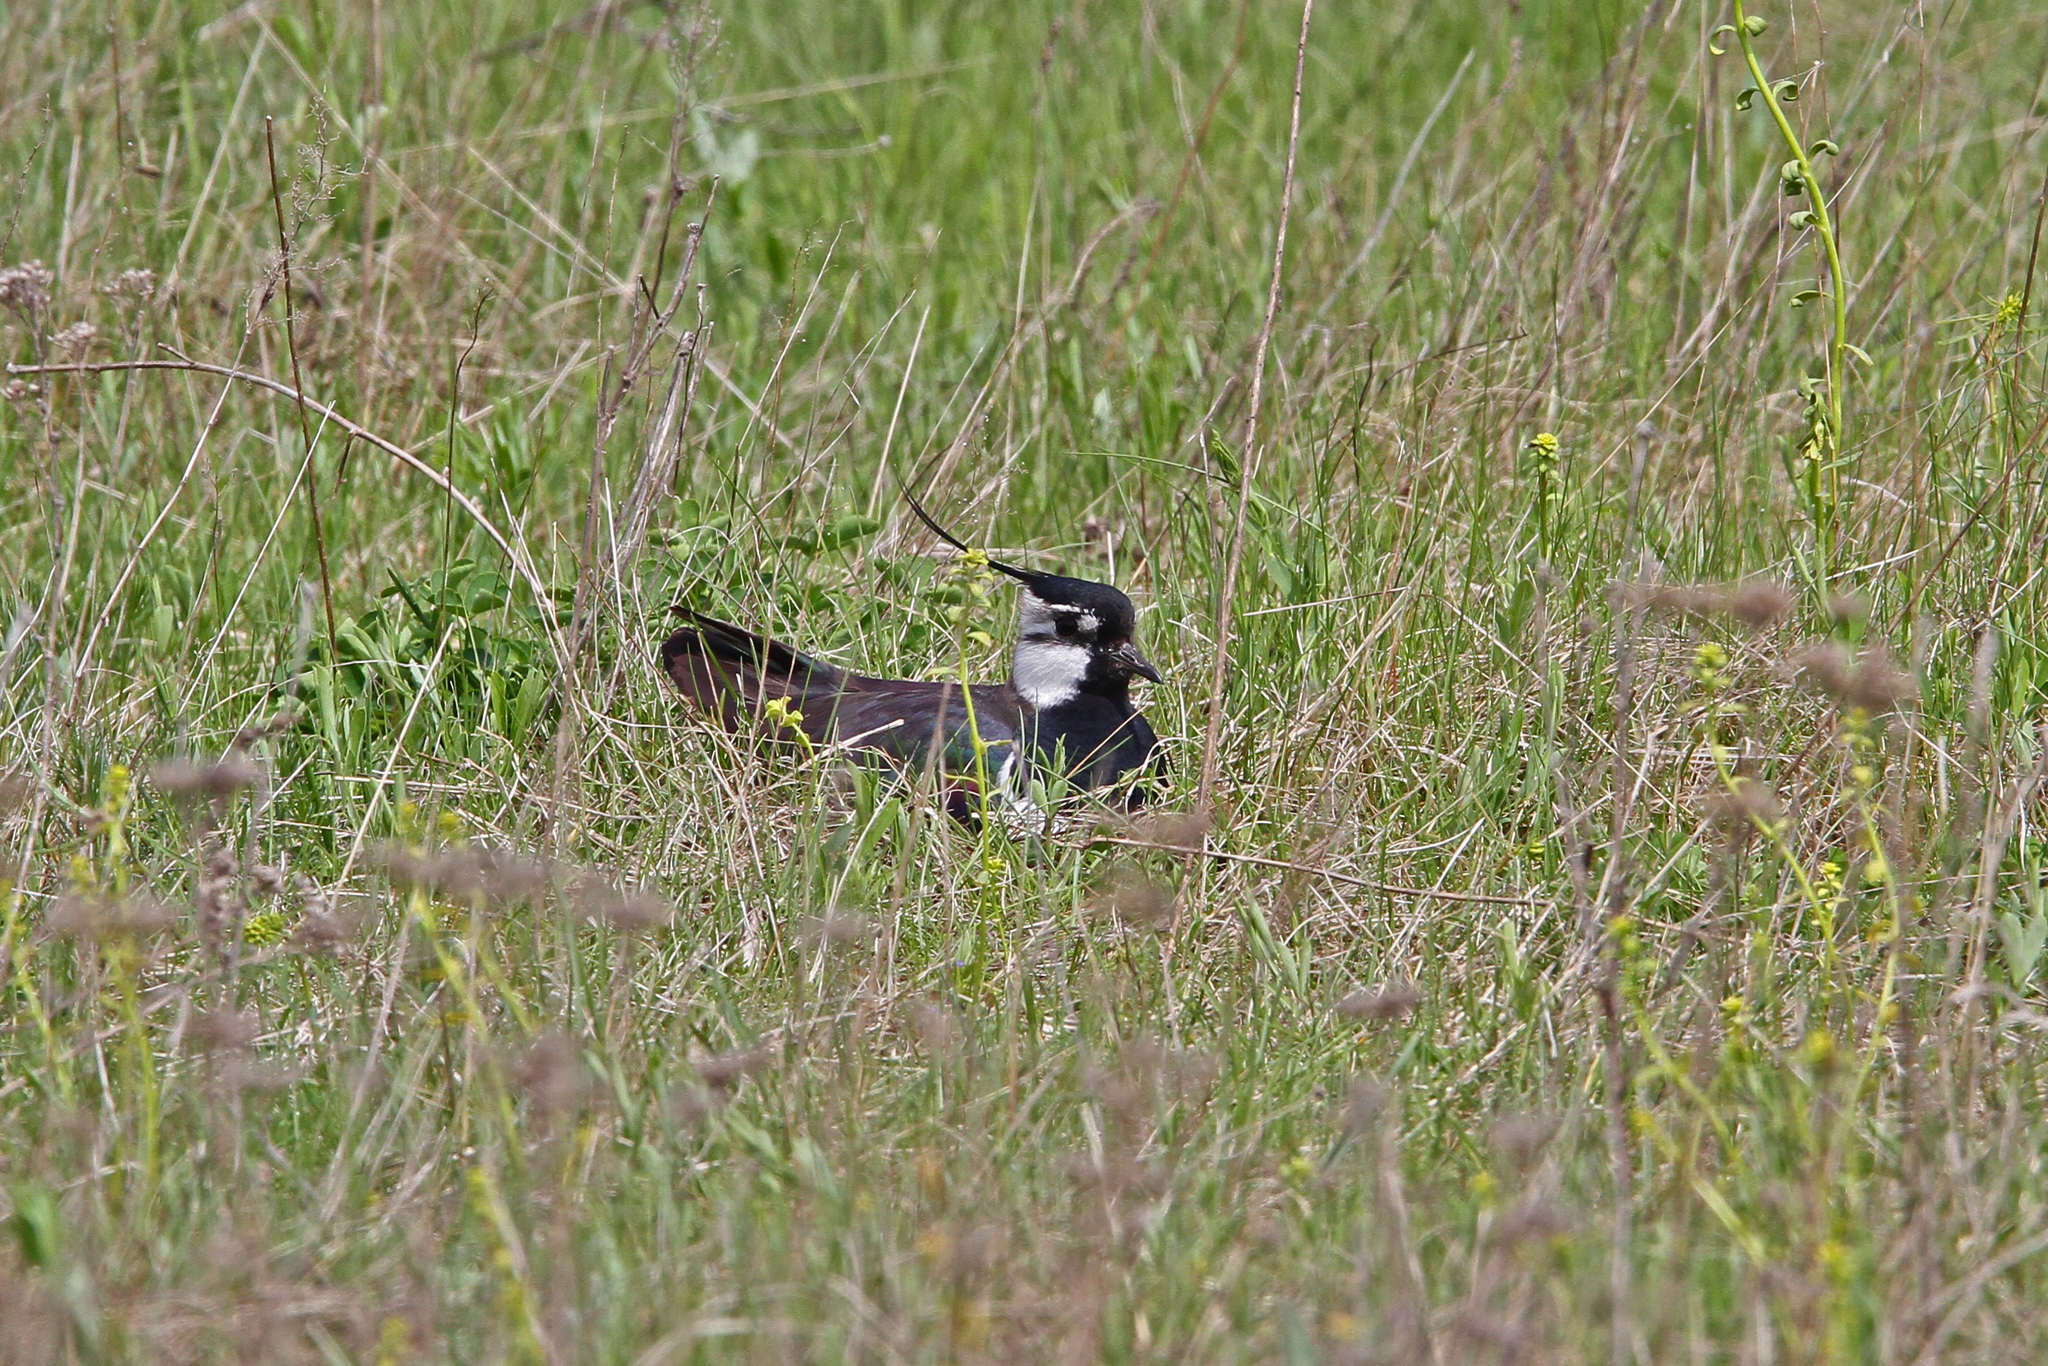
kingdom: Animalia
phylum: Chordata
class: Aves
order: Charadriiformes
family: Charadriidae
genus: Vanellus
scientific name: Vanellus vanellus
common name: Northern lapwing
